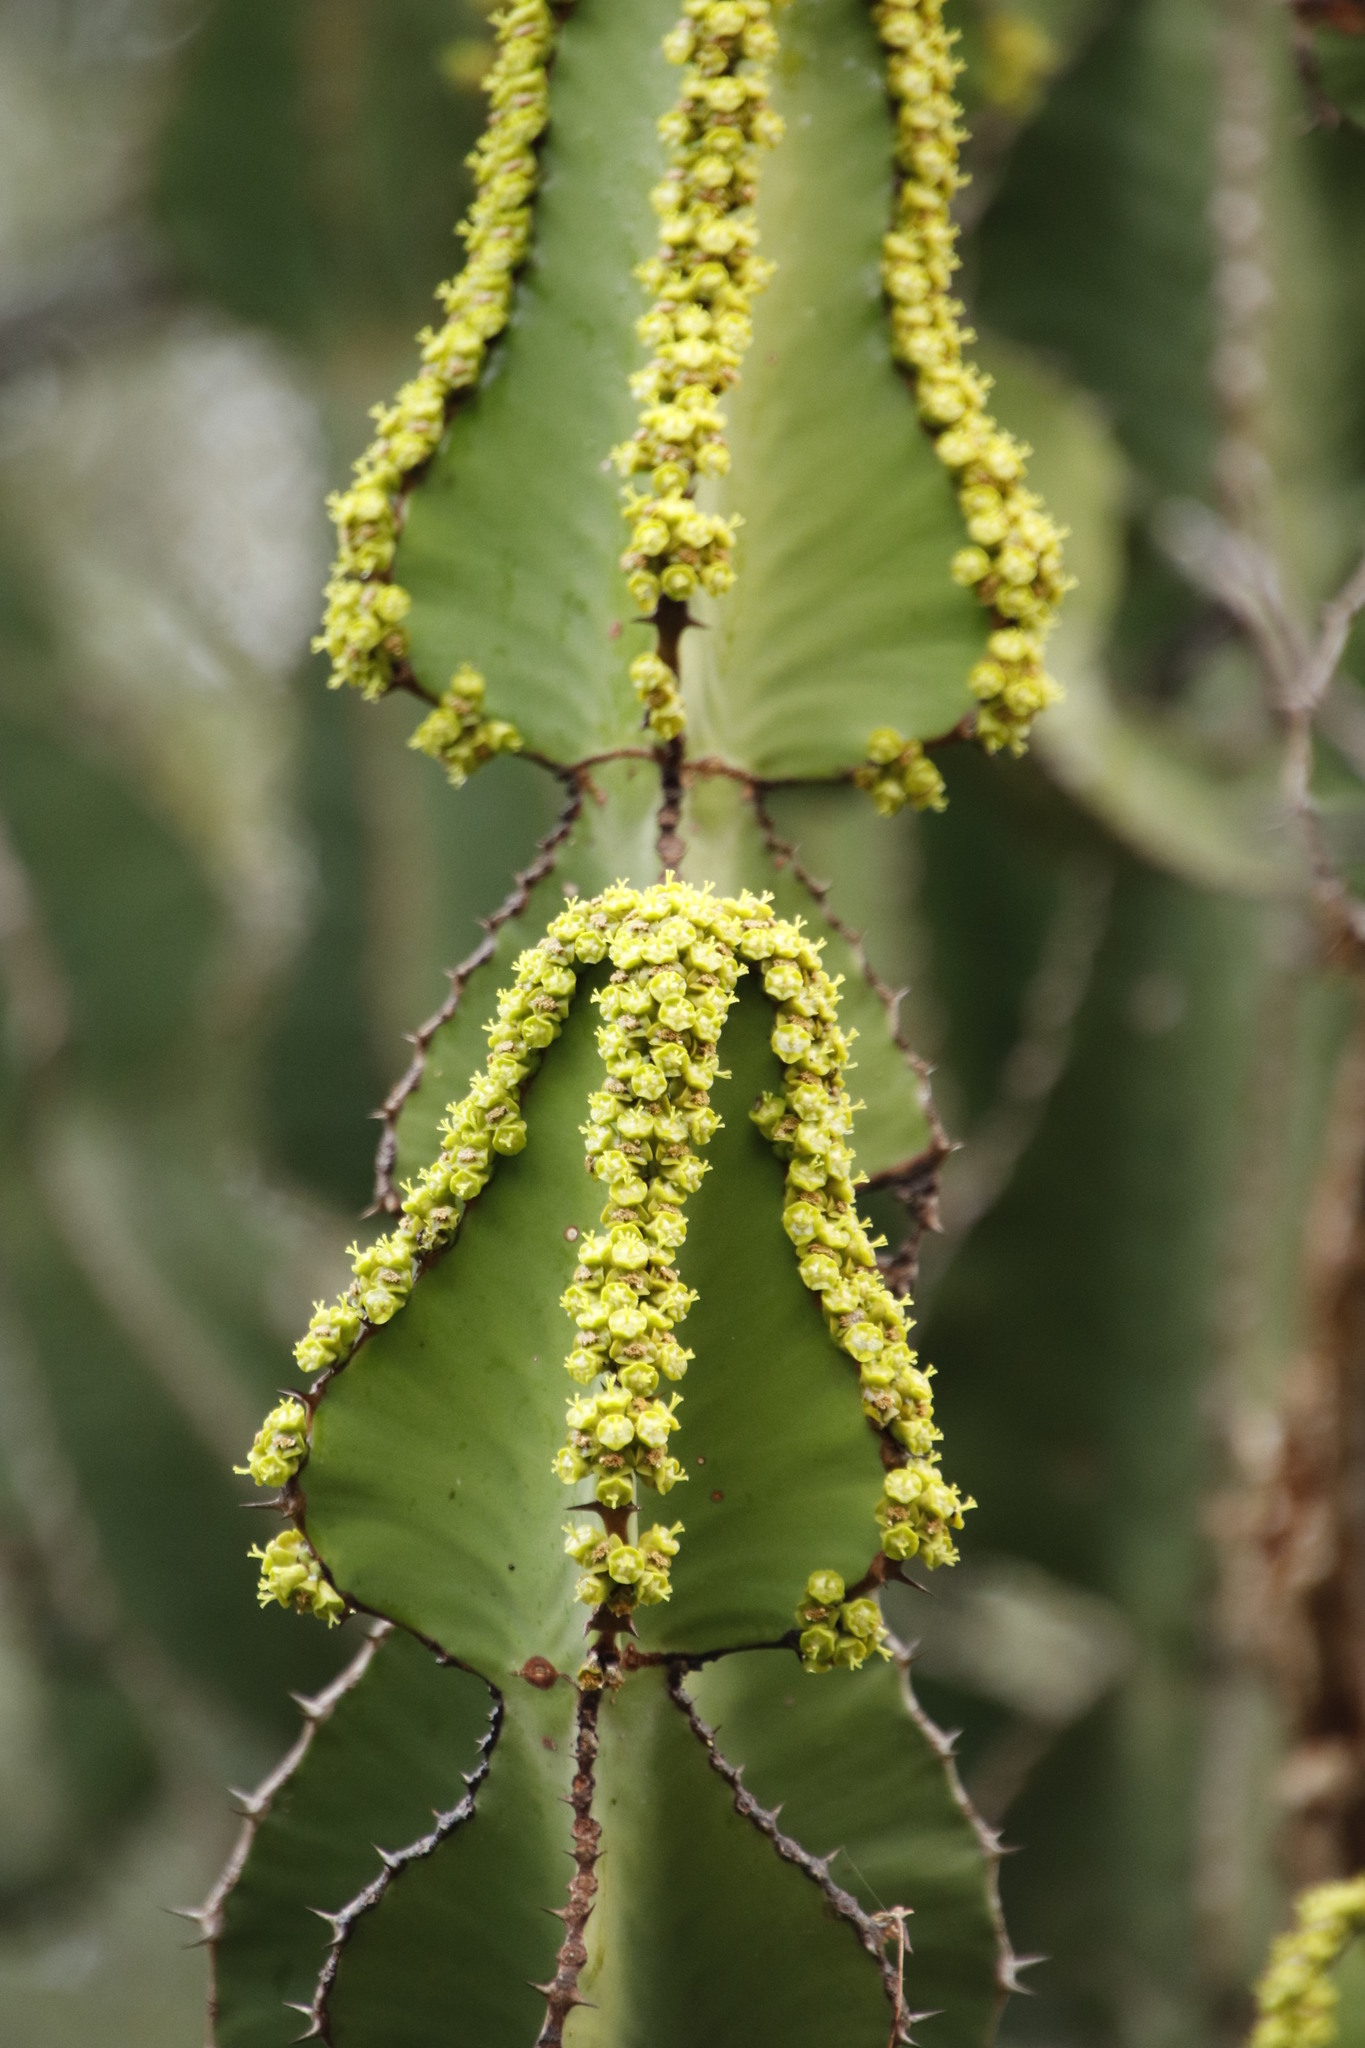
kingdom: Plantae
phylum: Tracheophyta
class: Magnoliopsida
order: Malpighiales
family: Euphorbiaceae
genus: Euphorbia
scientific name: Euphorbia cooperi
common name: Candelabra tree
